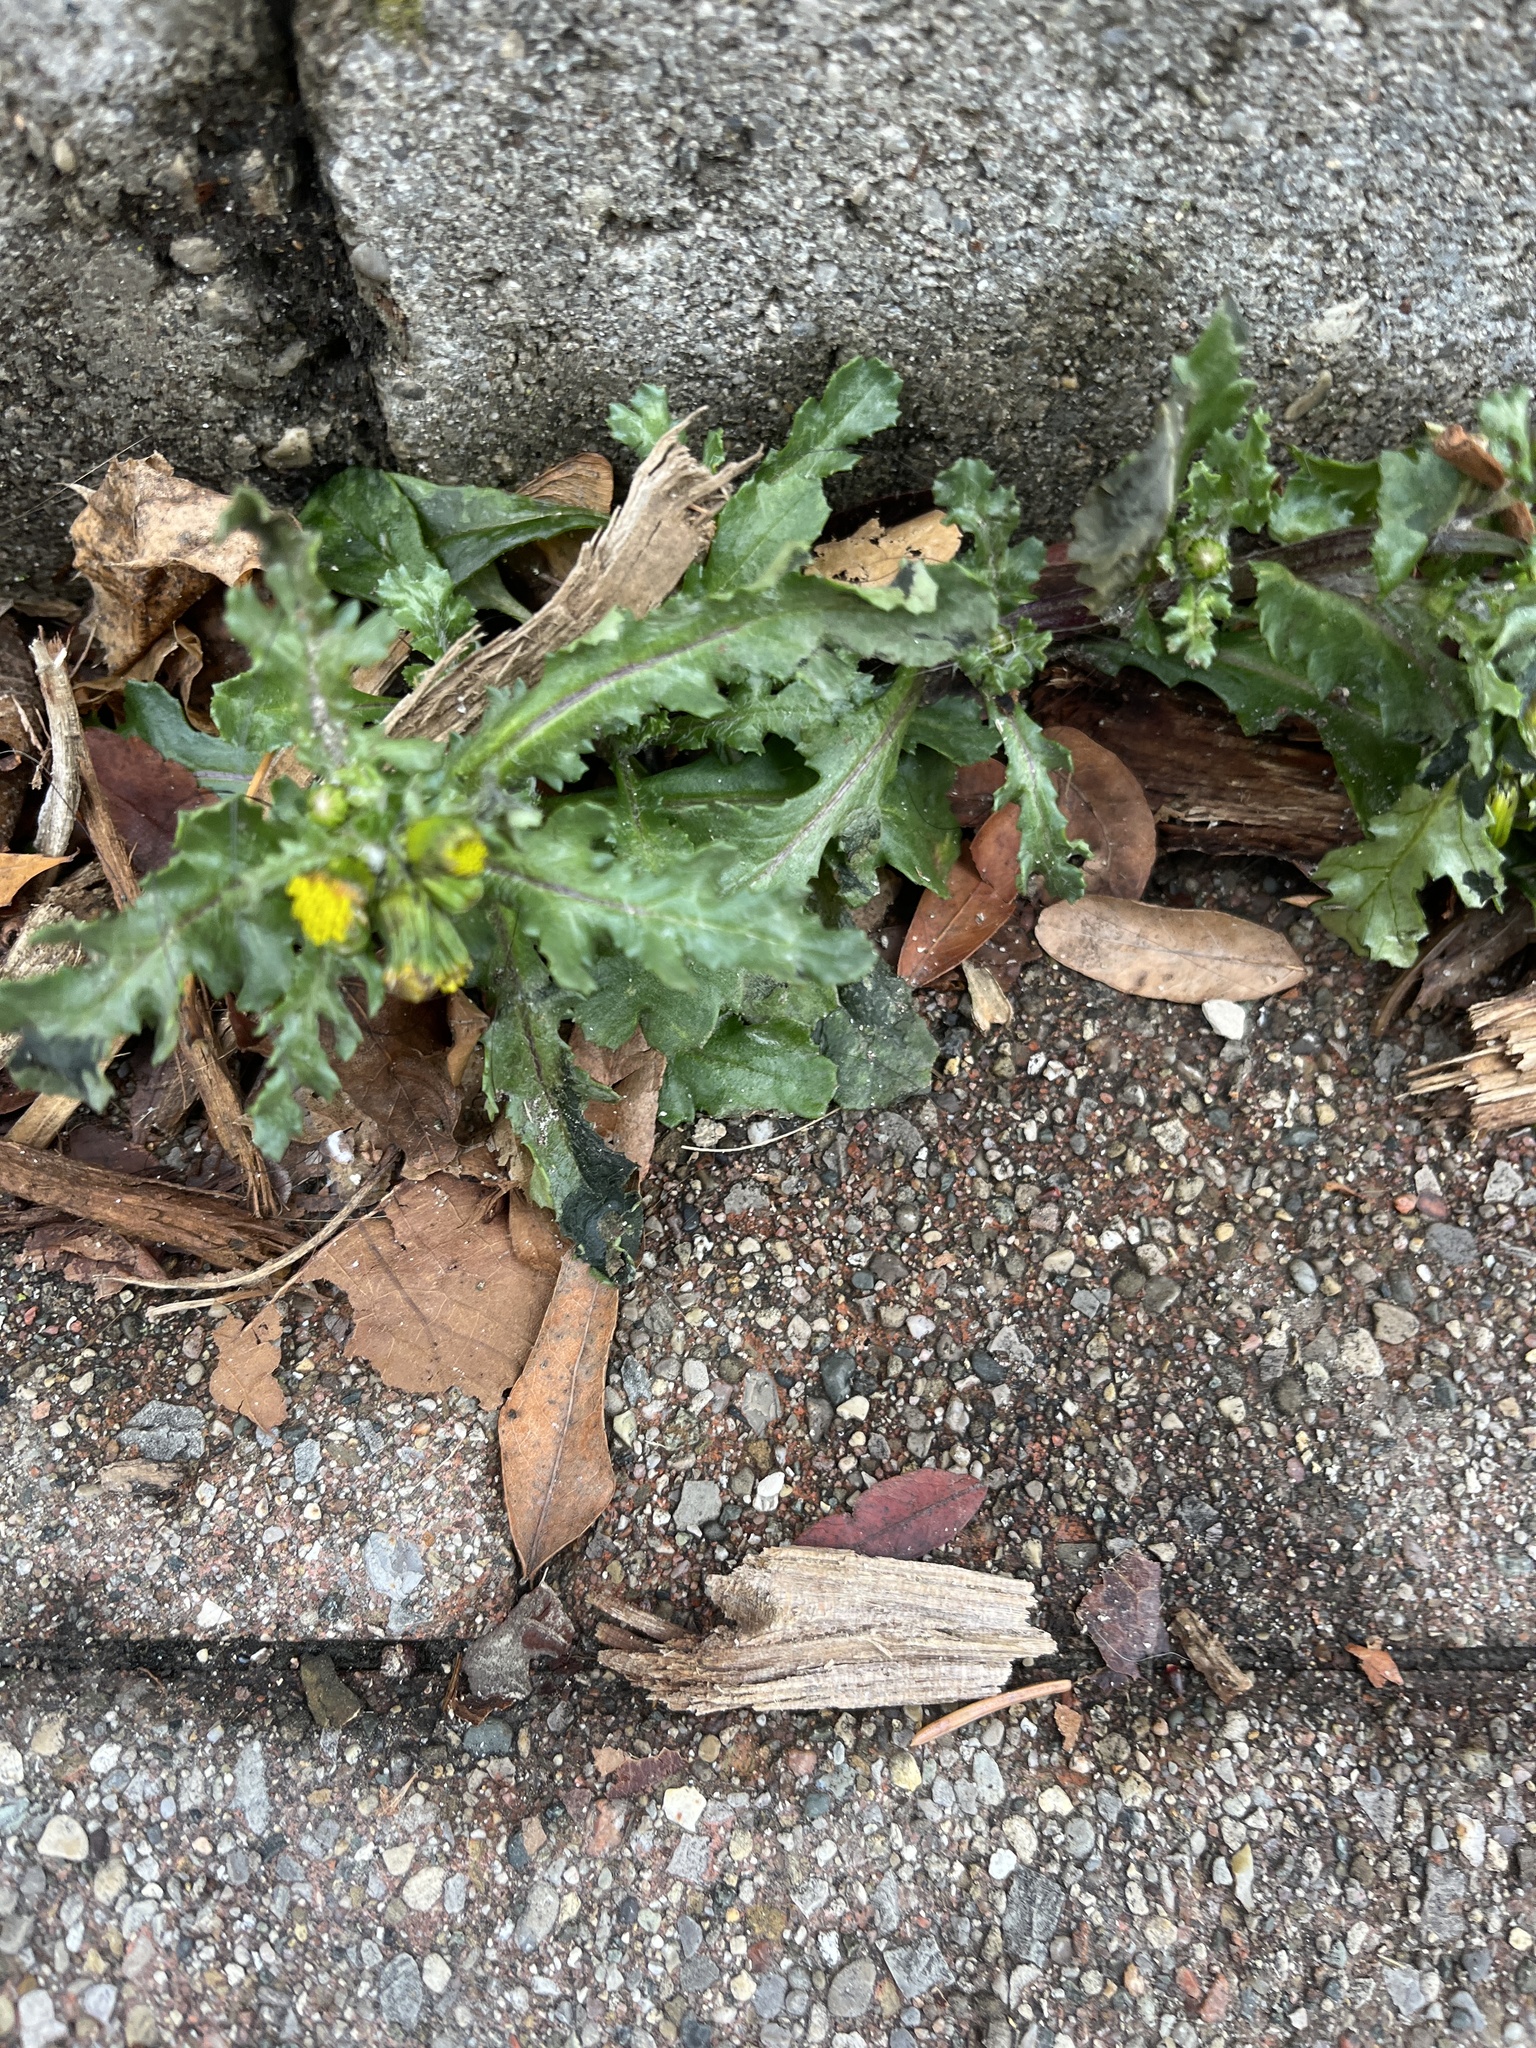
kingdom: Plantae
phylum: Tracheophyta
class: Magnoliopsida
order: Asterales
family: Asteraceae
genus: Senecio
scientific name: Senecio vulgaris
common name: Old-man-in-the-spring
